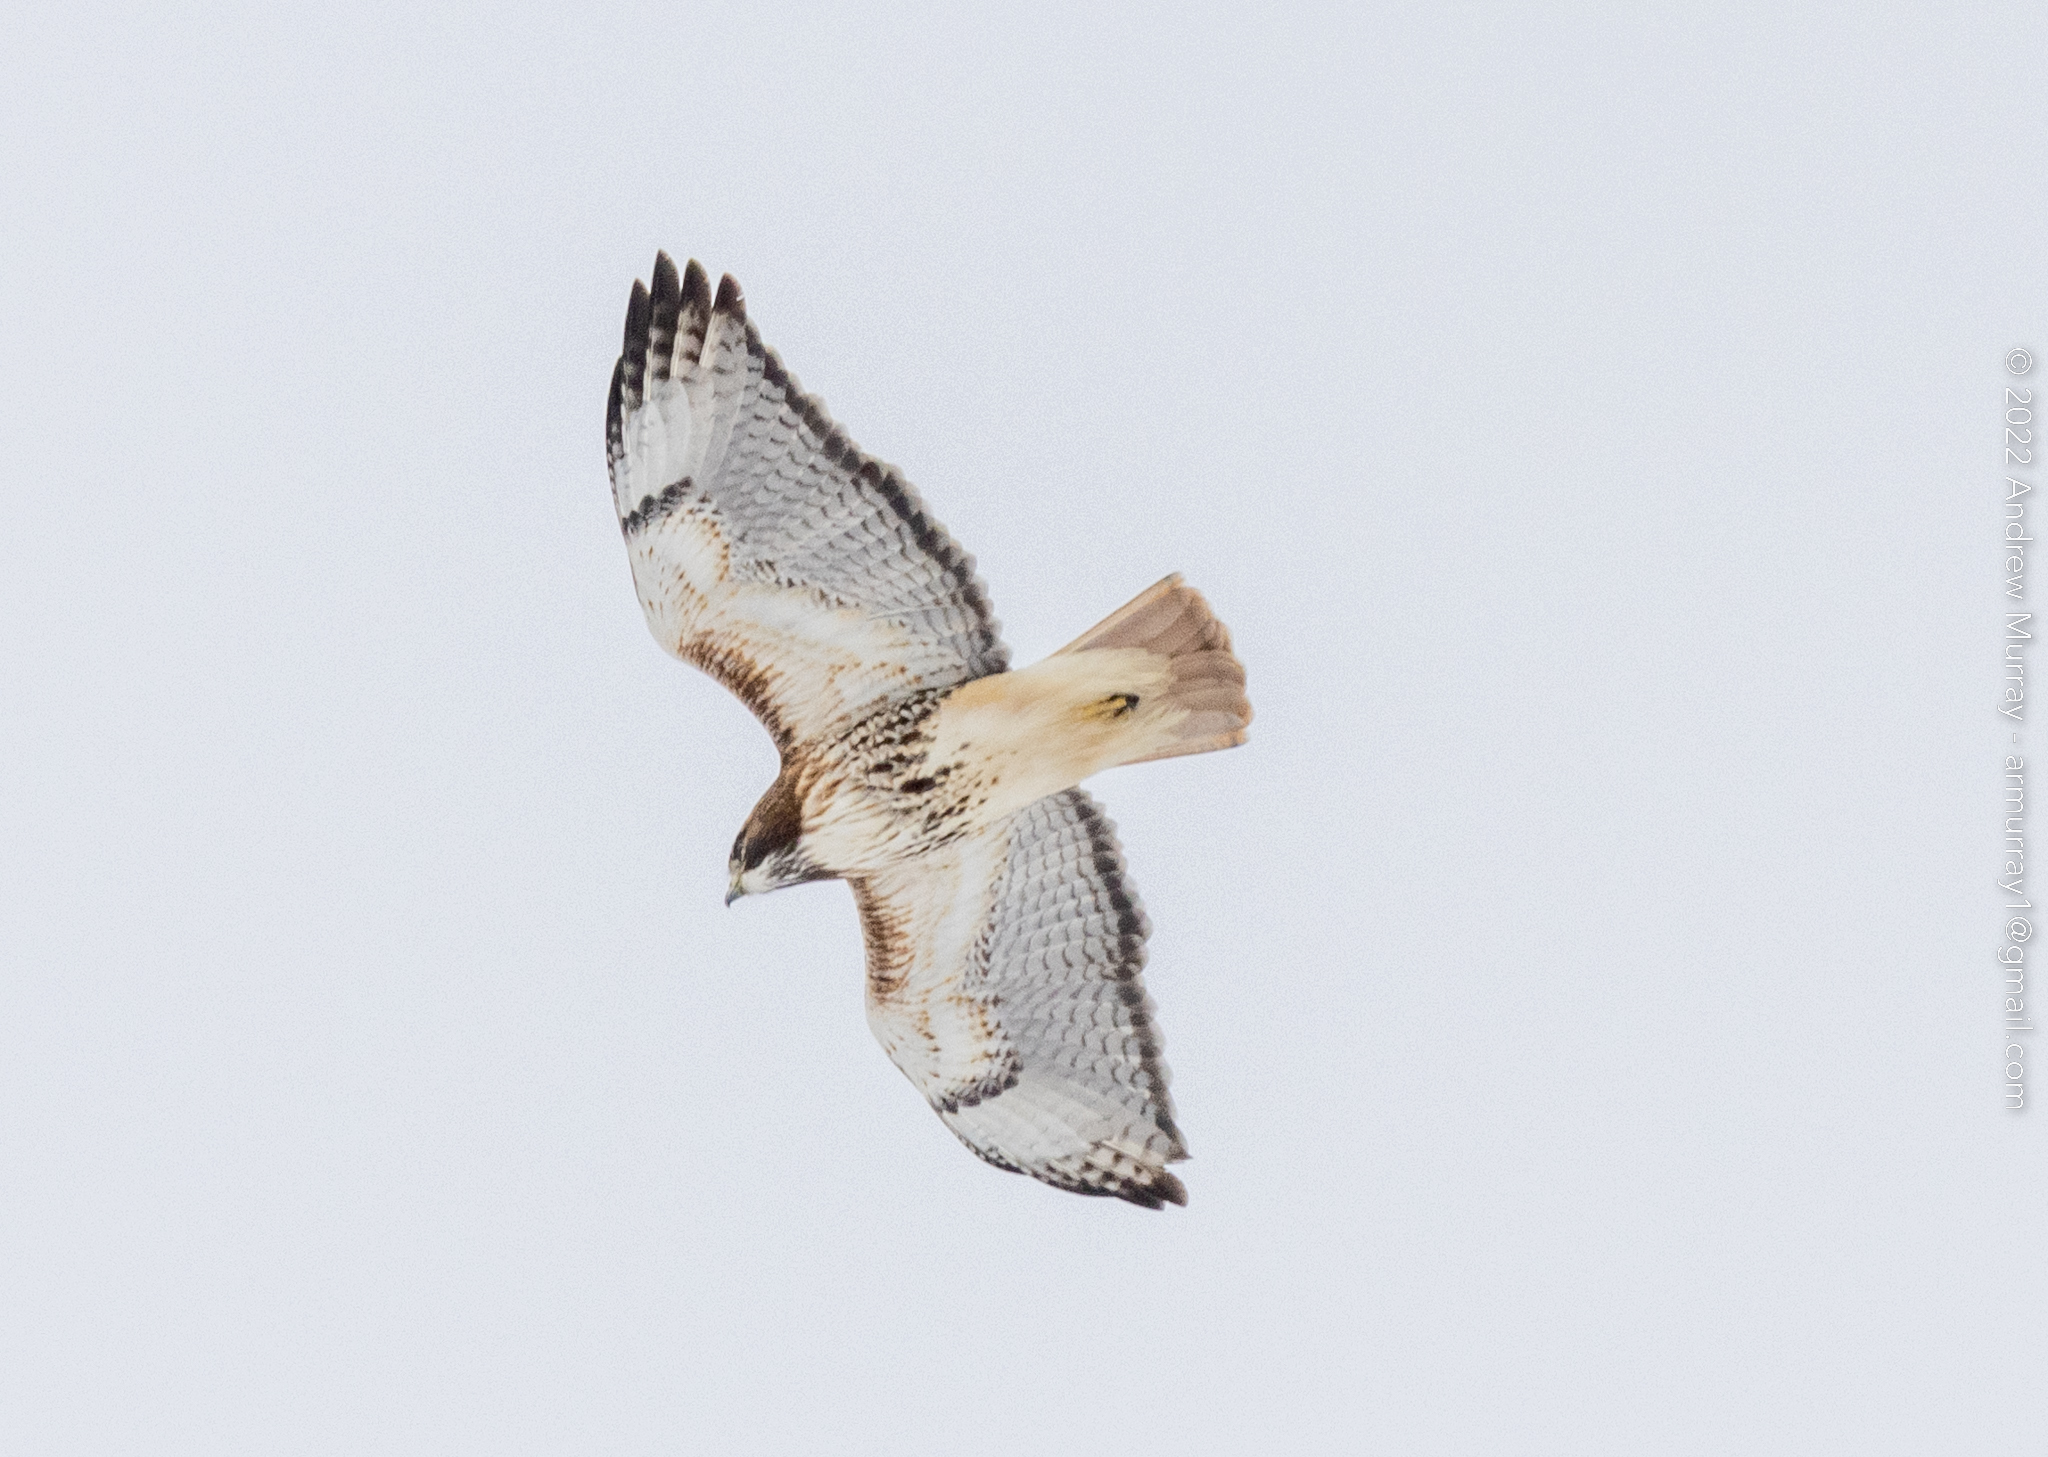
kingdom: Animalia
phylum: Chordata
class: Aves
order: Accipitriformes
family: Accipitridae
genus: Buteo
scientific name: Buteo jamaicensis
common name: Red-tailed hawk
